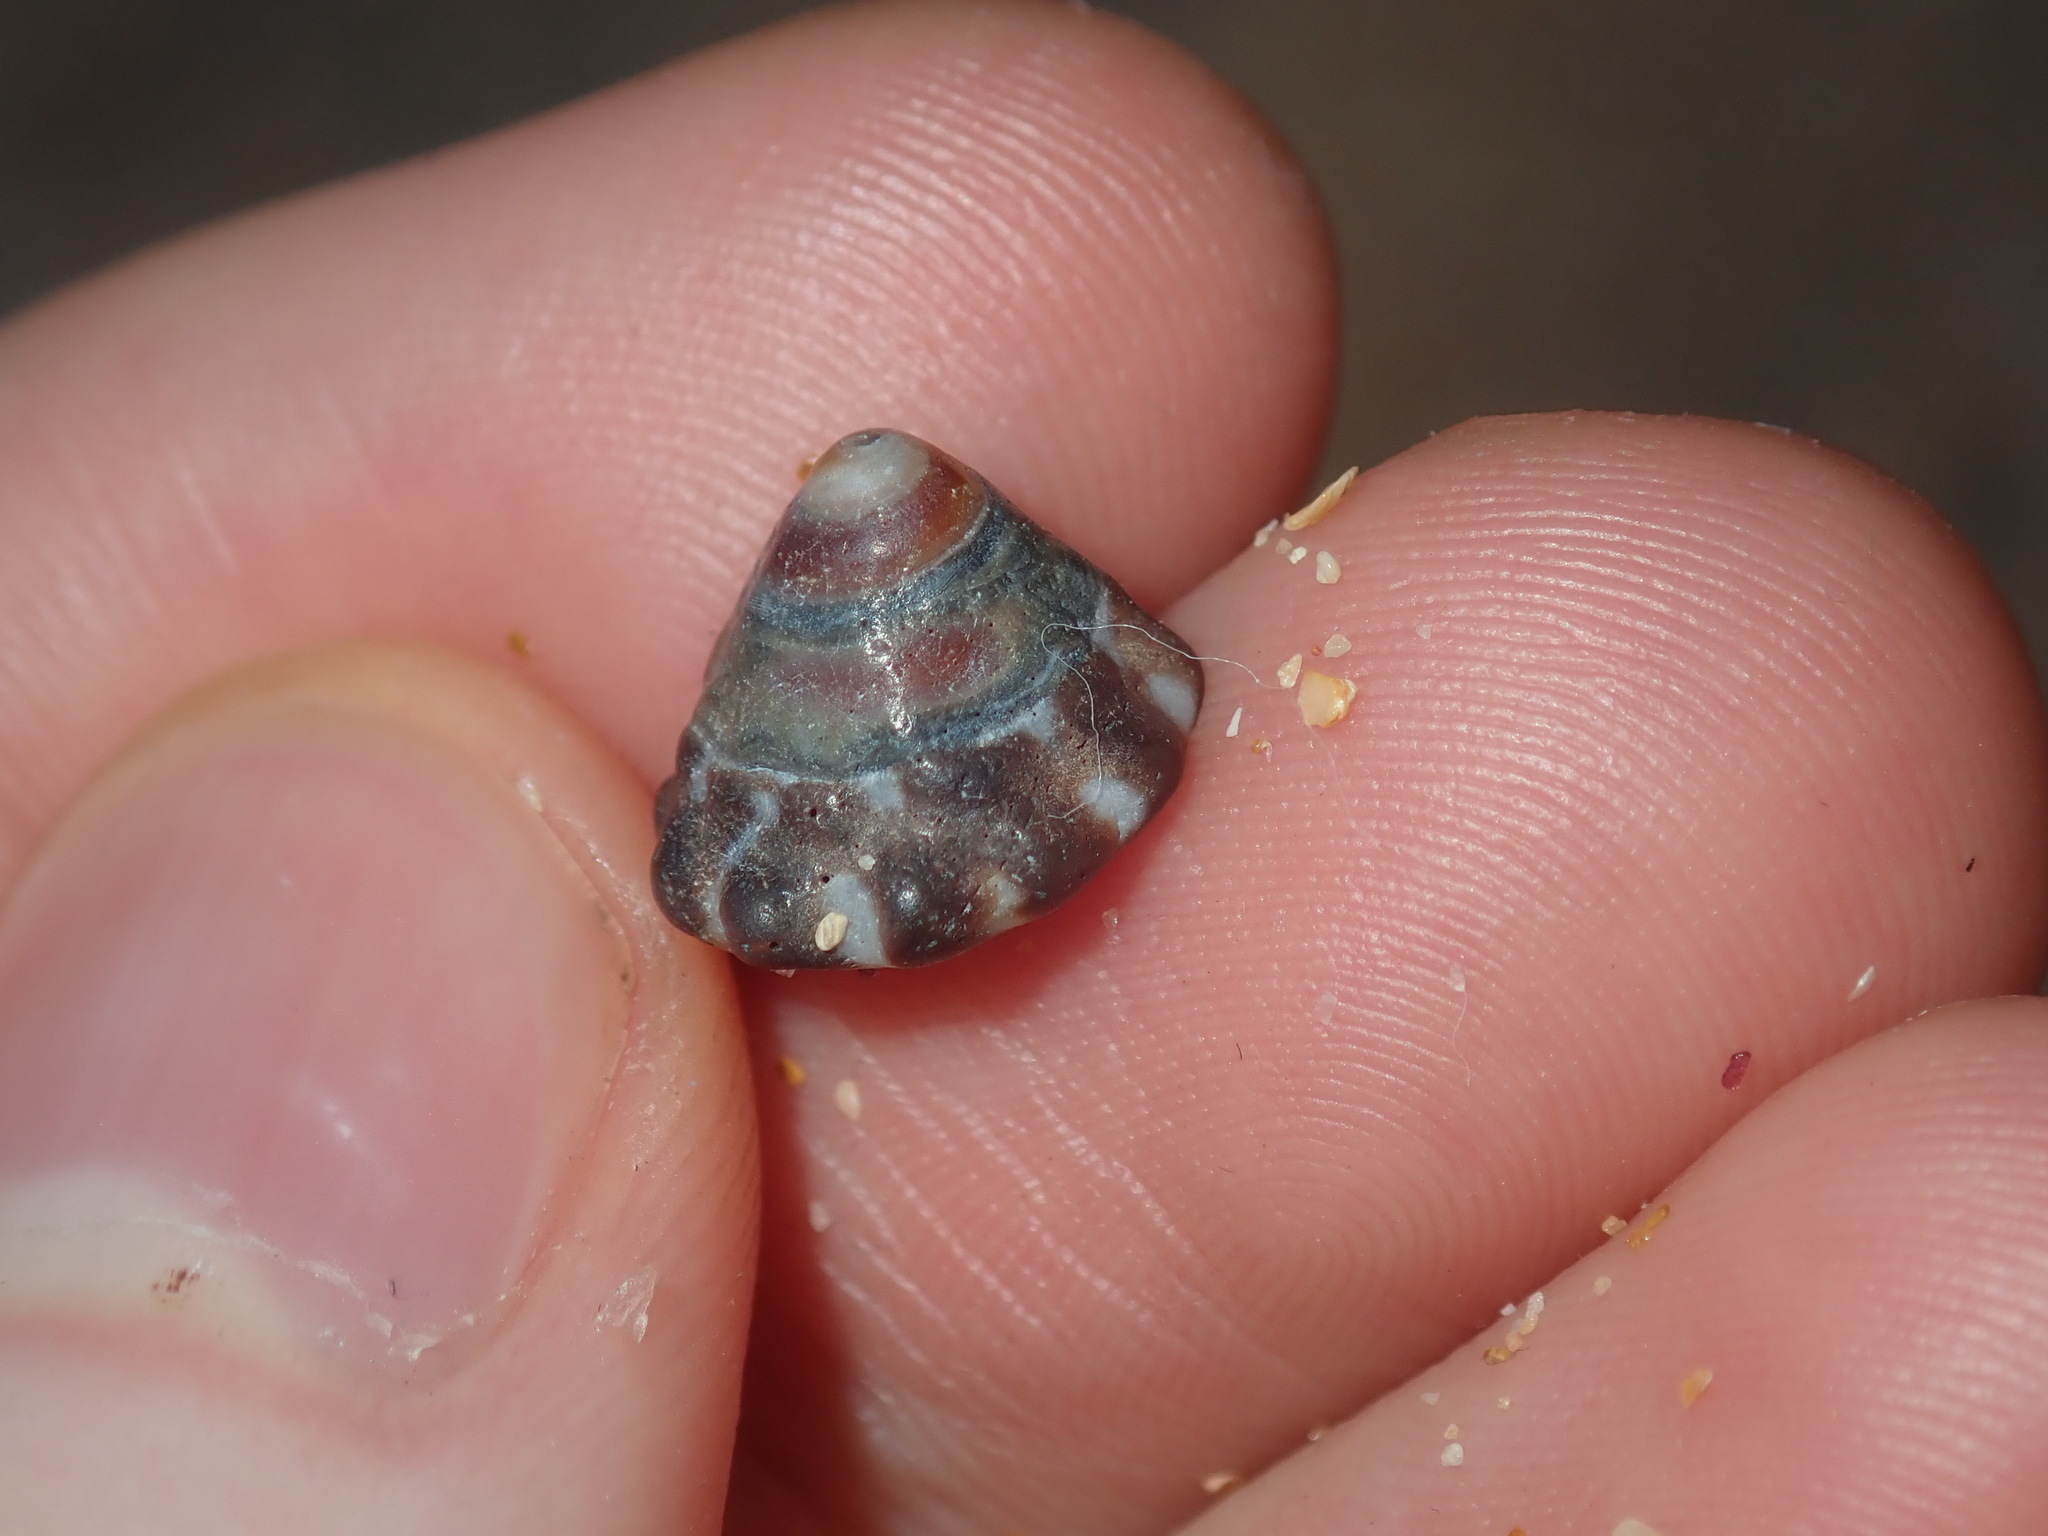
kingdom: Animalia
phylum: Mollusca
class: Gastropoda
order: Littorinimorpha
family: Littorinidae
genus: Bembicium
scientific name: Bembicium auratum
